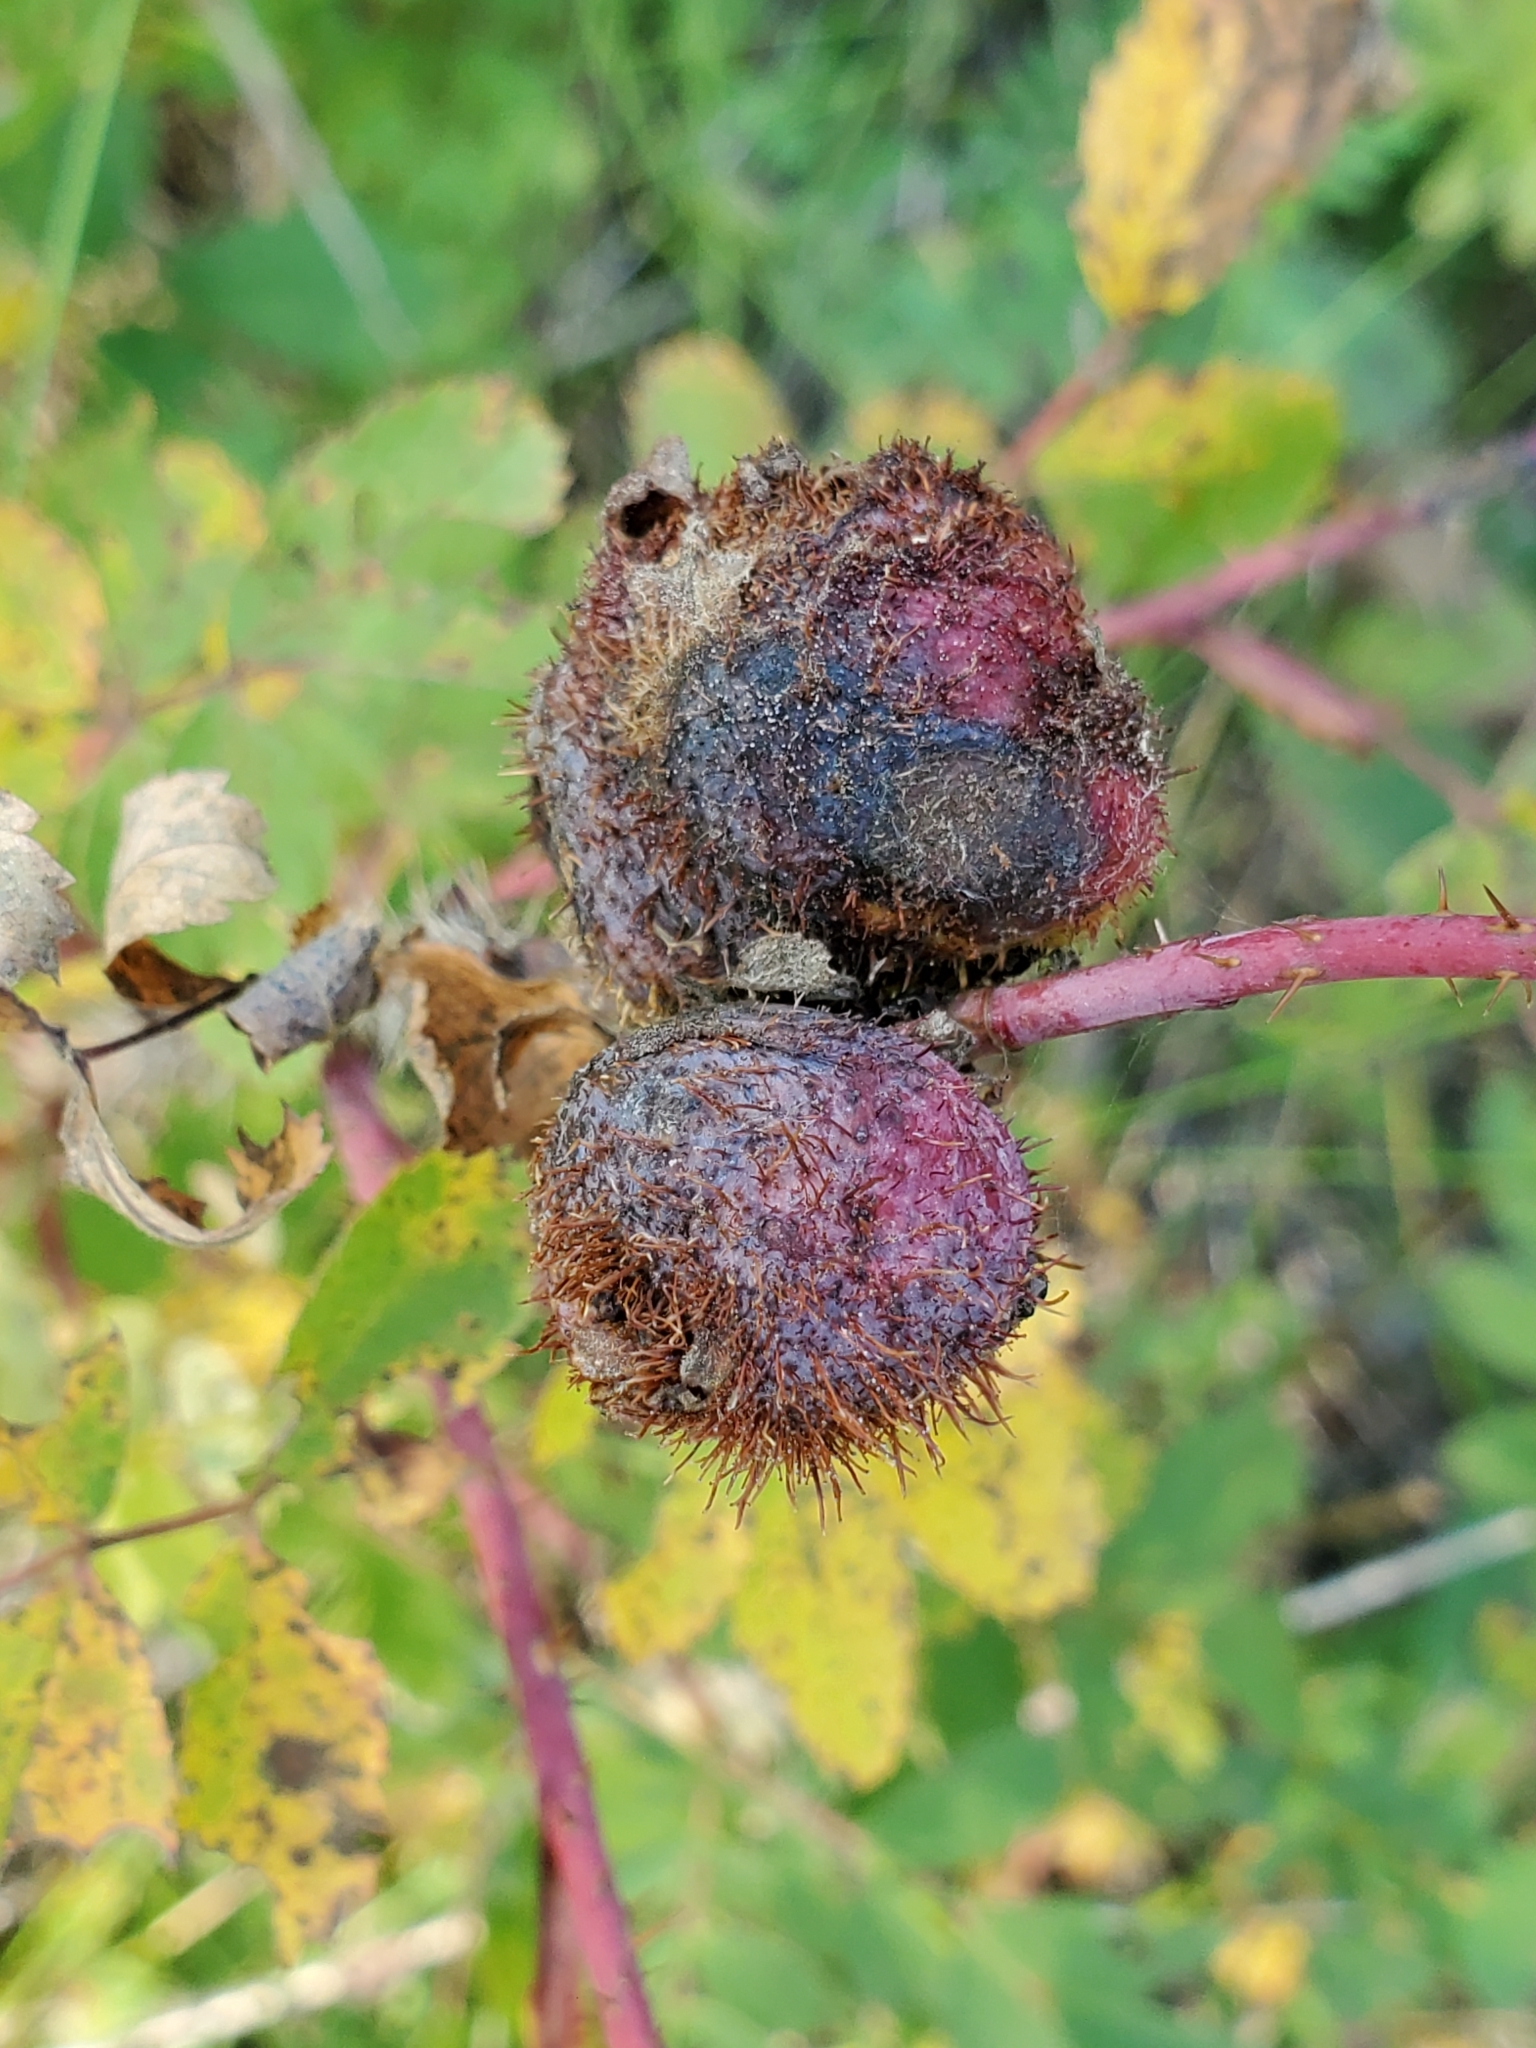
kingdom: Animalia
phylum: Arthropoda
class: Insecta
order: Hymenoptera
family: Cynipidae
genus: Diplolepis
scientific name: Diplolepis spinosa
